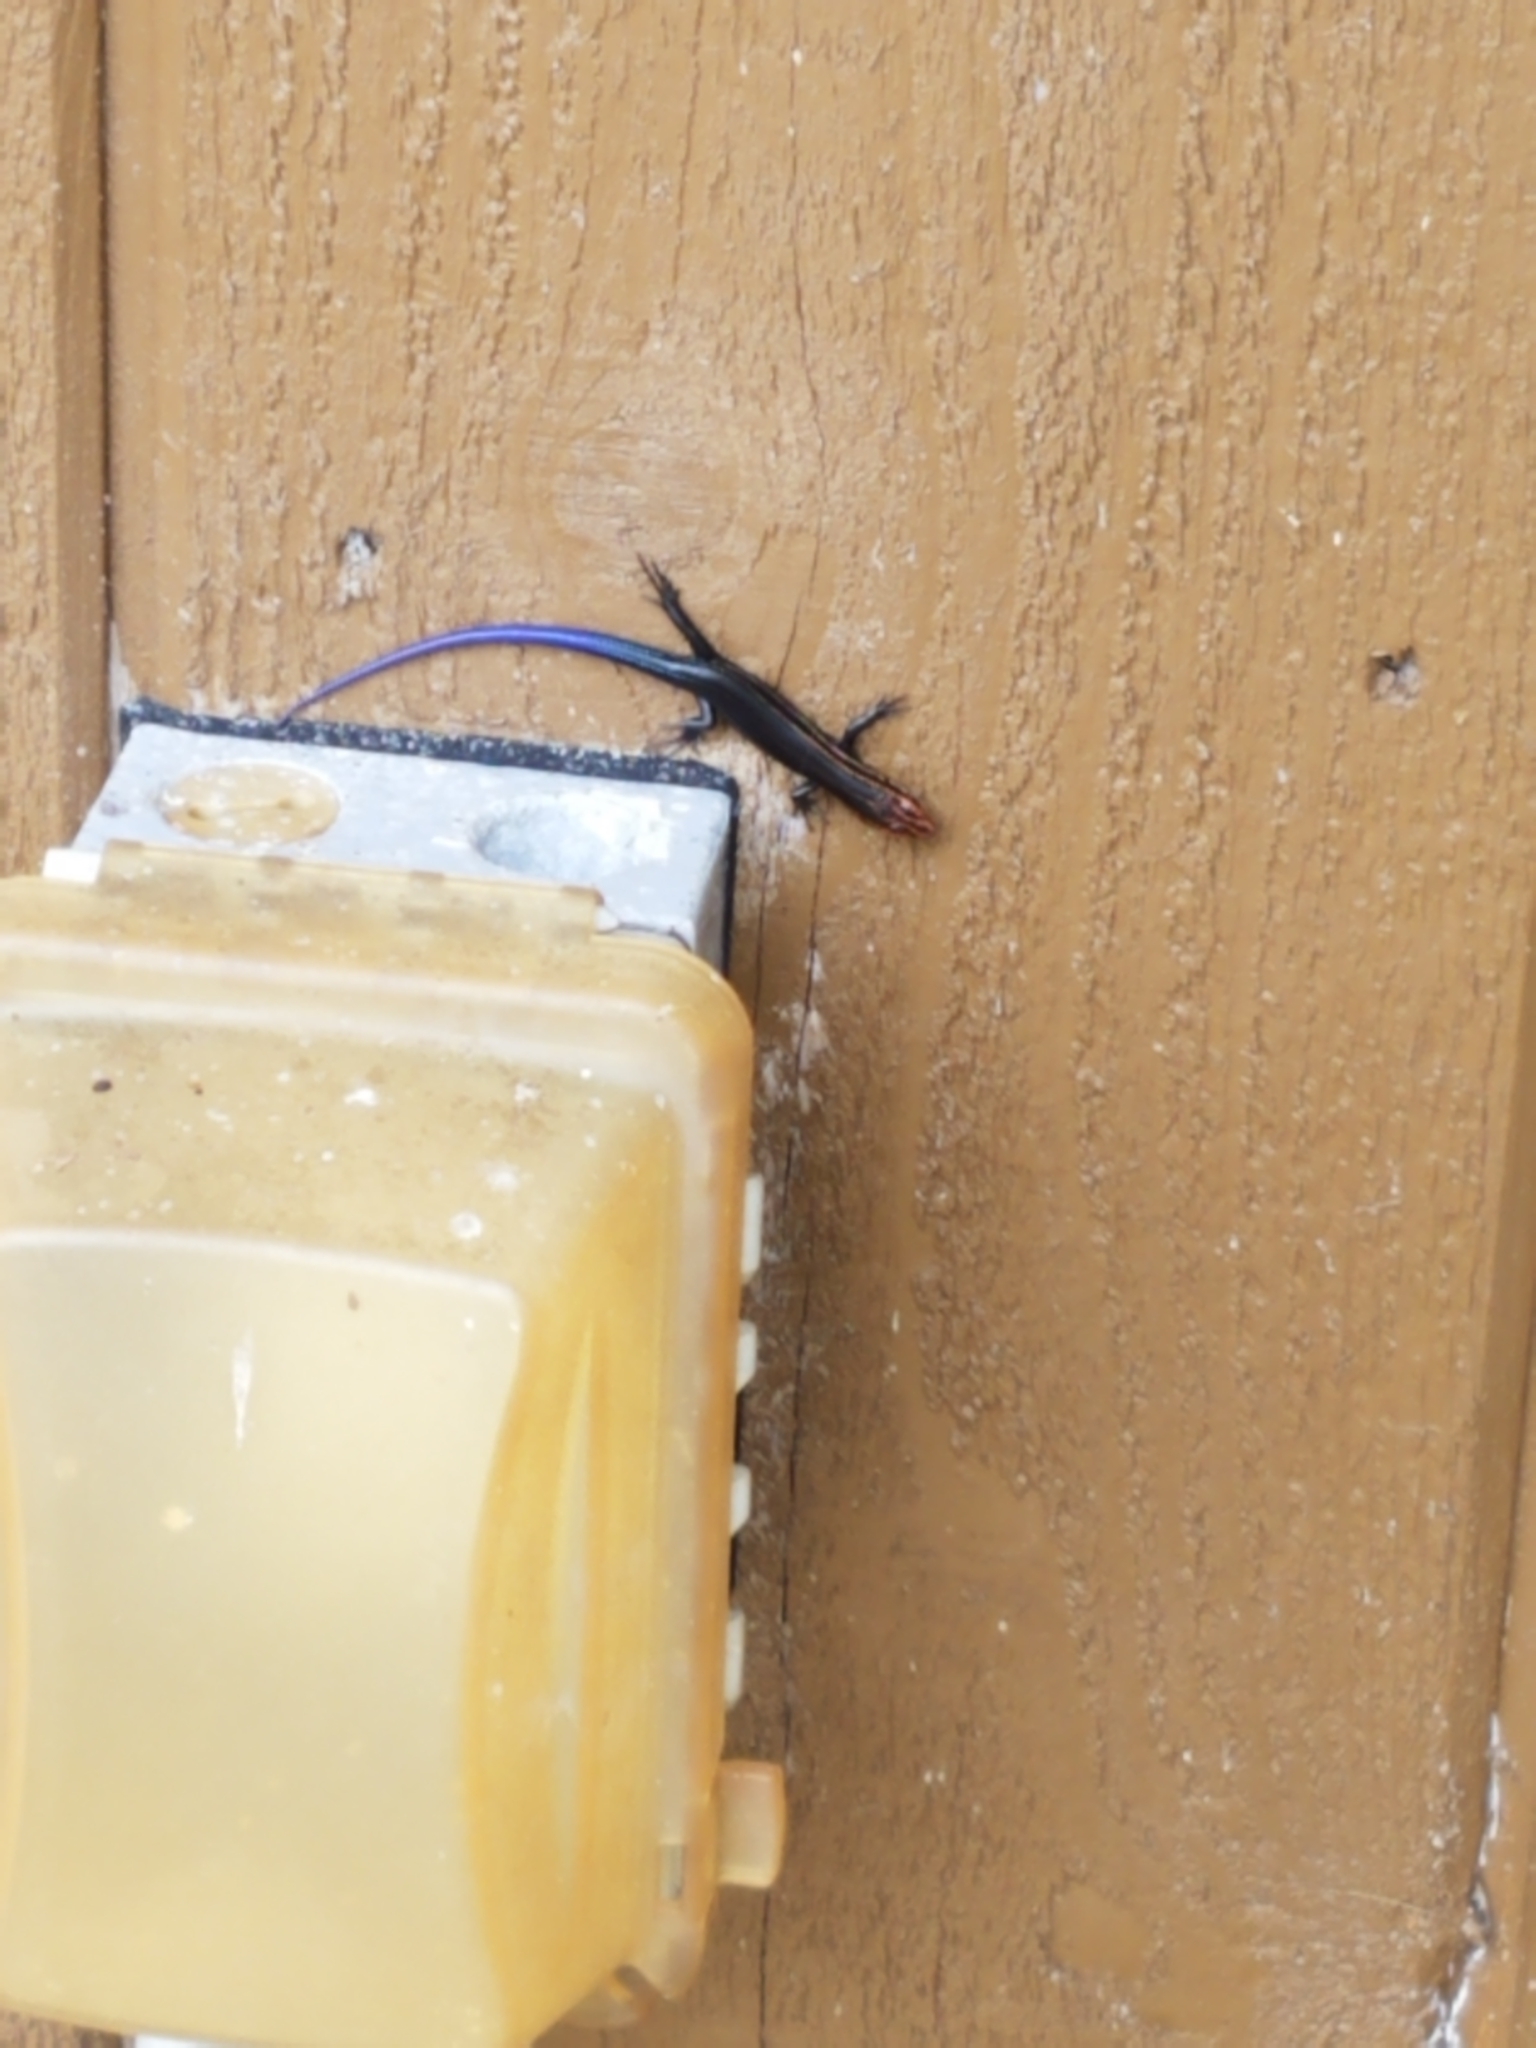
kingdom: Animalia
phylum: Chordata
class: Squamata
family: Scincidae
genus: Plestiodon
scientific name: Plestiodon inexpectatus
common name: Southeastern five-lined skink
